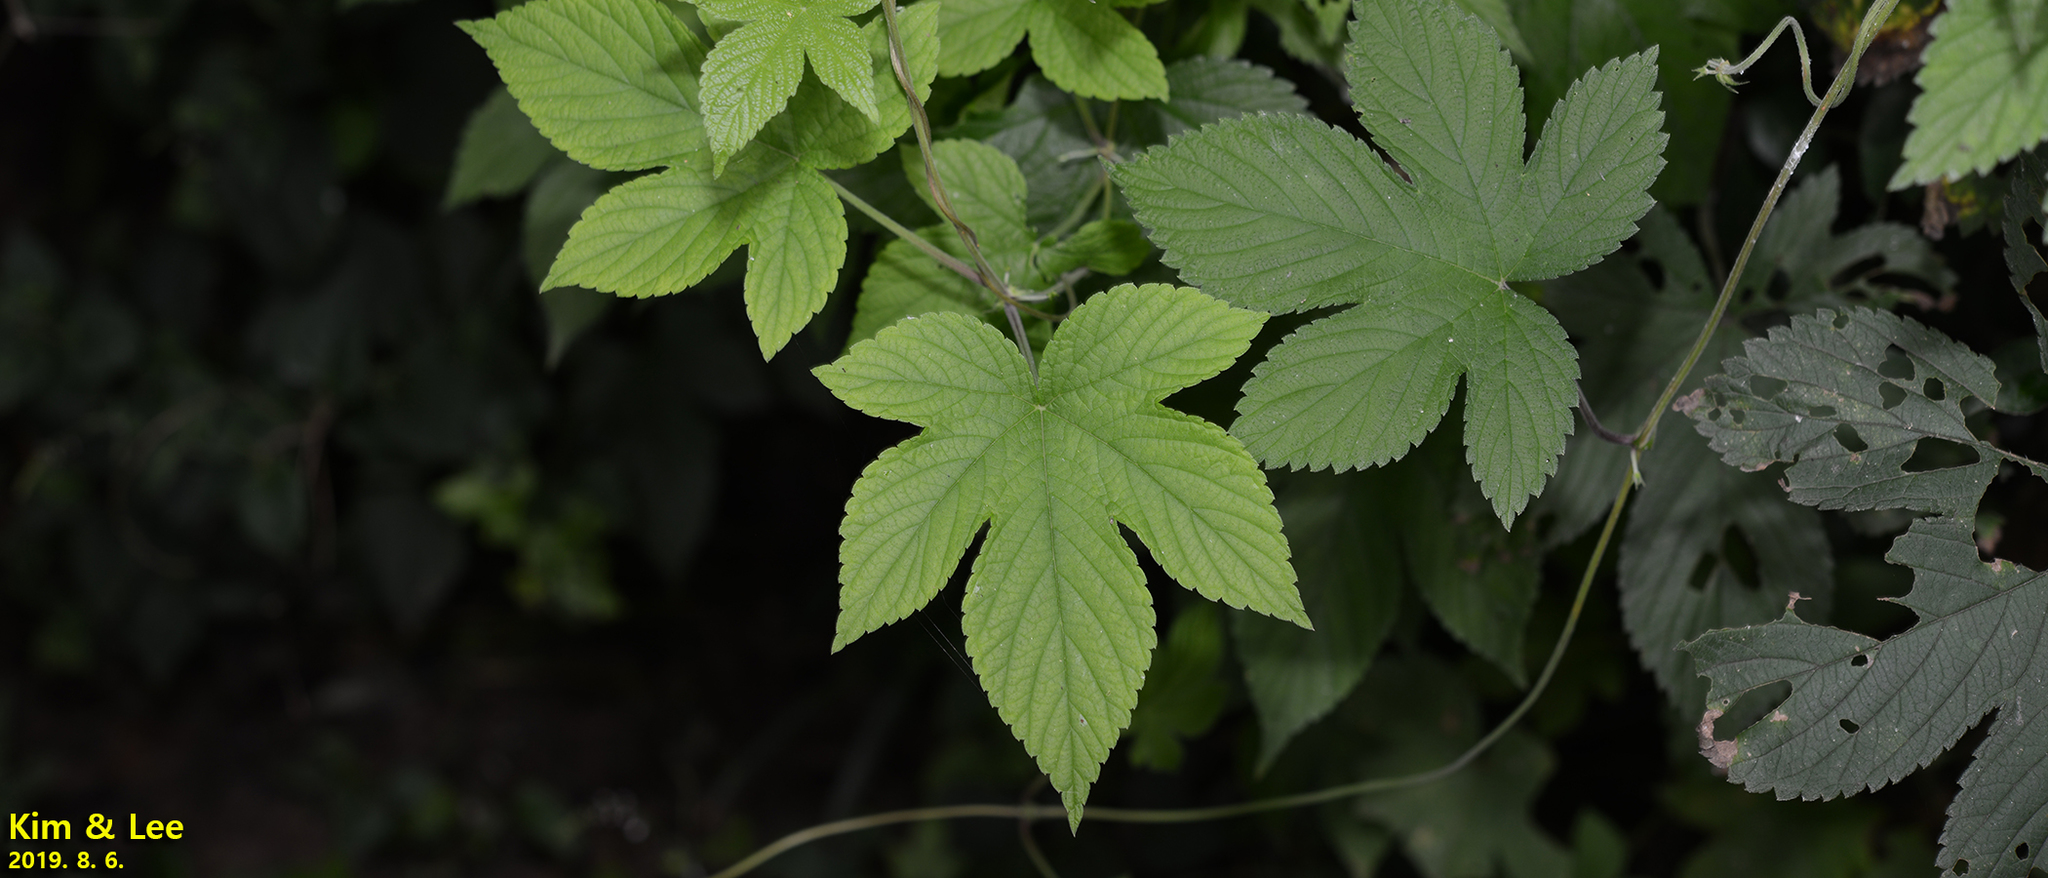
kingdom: Plantae
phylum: Tracheophyta
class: Magnoliopsida
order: Rosales
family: Cannabaceae
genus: Humulus
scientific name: Humulus scandens
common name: Japanese hop
